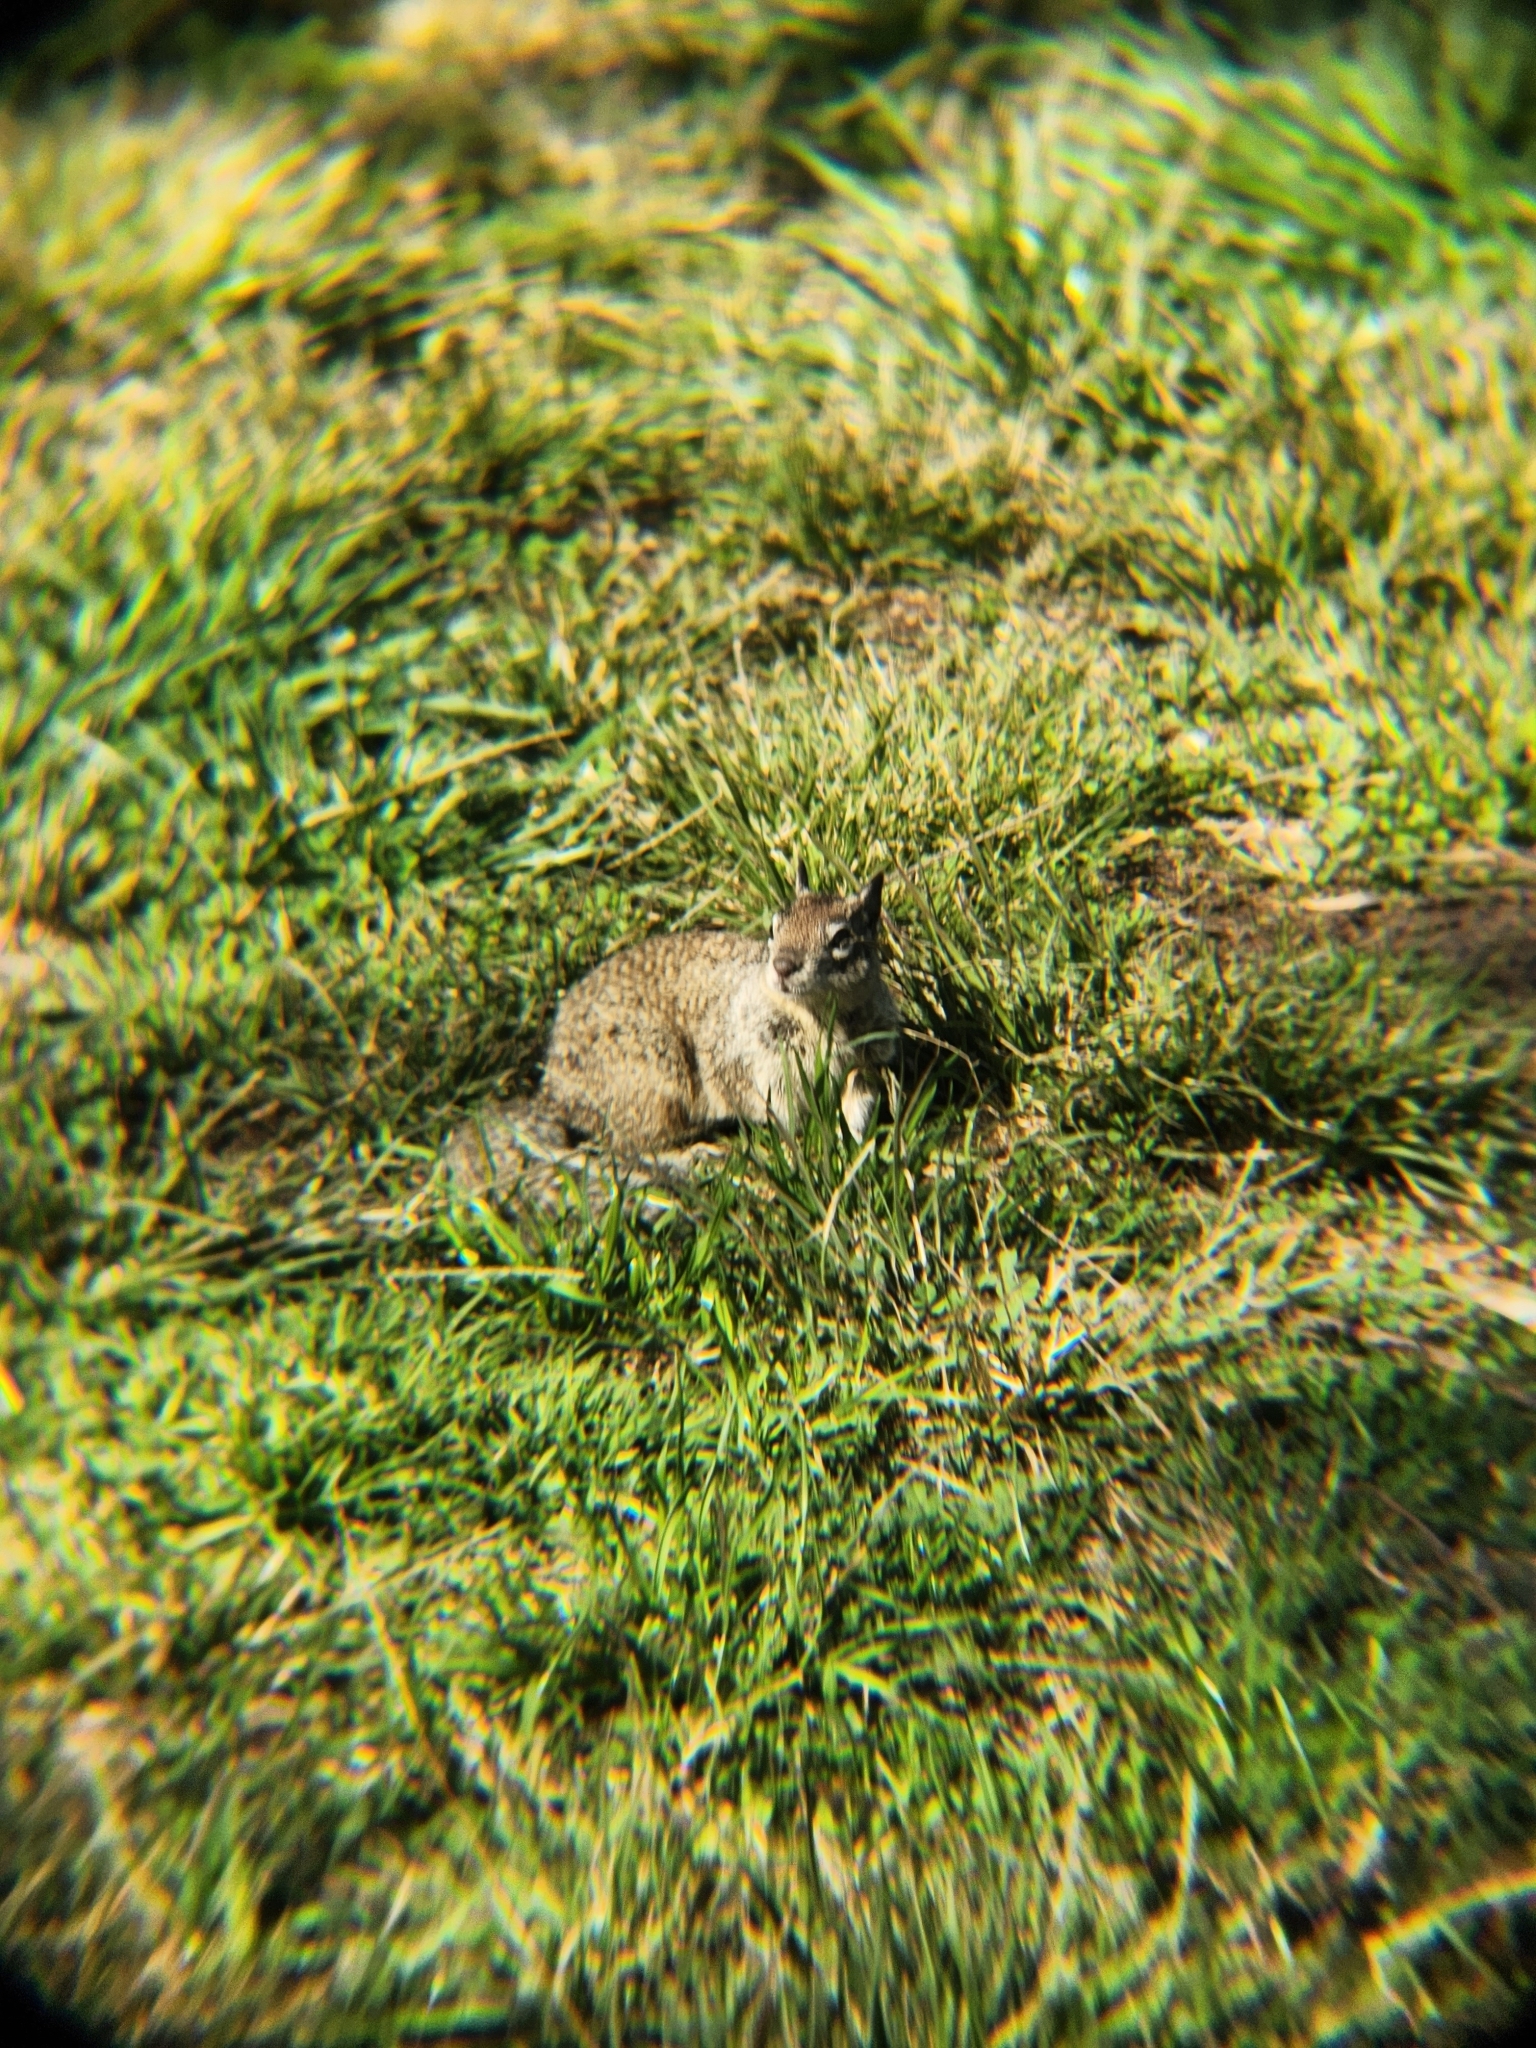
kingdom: Animalia
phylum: Chordata
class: Mammalia
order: Rodentia
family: Sciuridae
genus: Otospermophilus
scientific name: Otospermophilus beecheyi
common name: California ground squirrel
